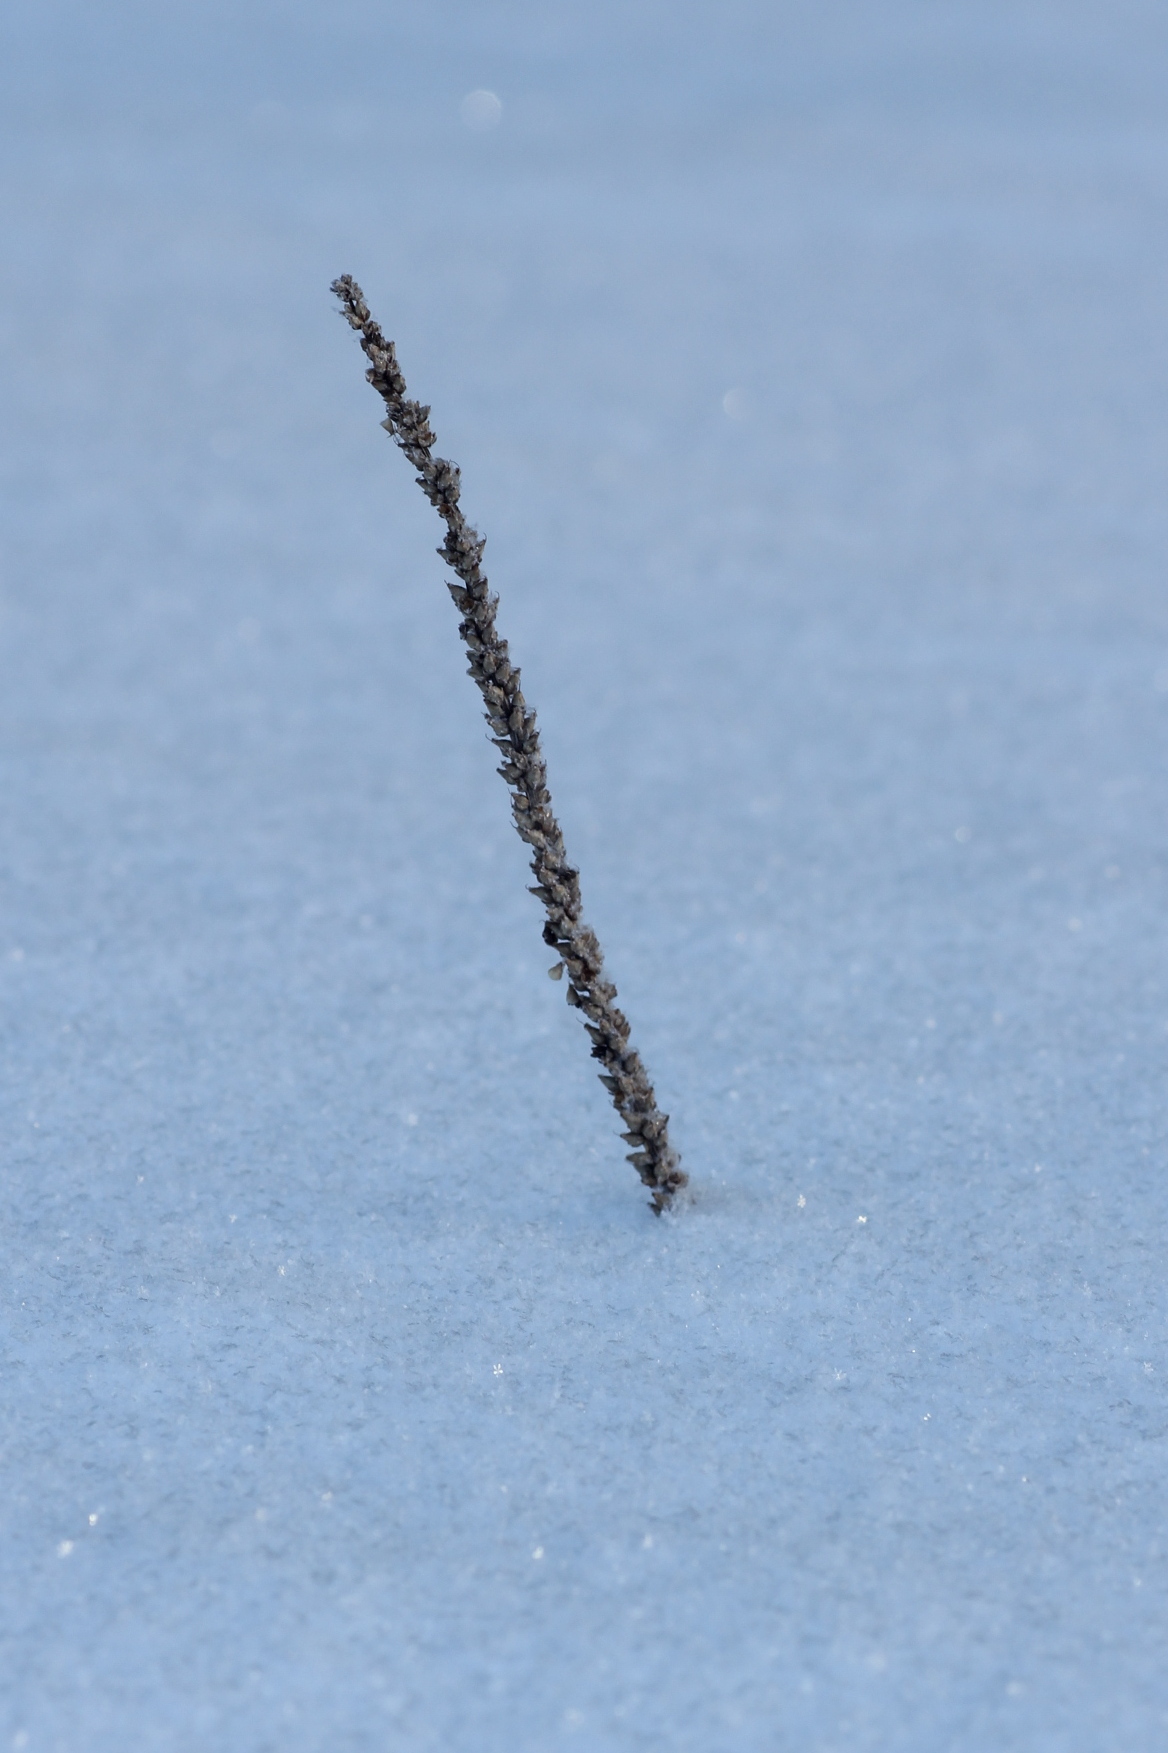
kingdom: Plantae
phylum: Tracheophyta
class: Magnoliopsida
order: Lamiales
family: Plantaginaceae
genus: Plantago
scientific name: Plantago major
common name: Common plantain
